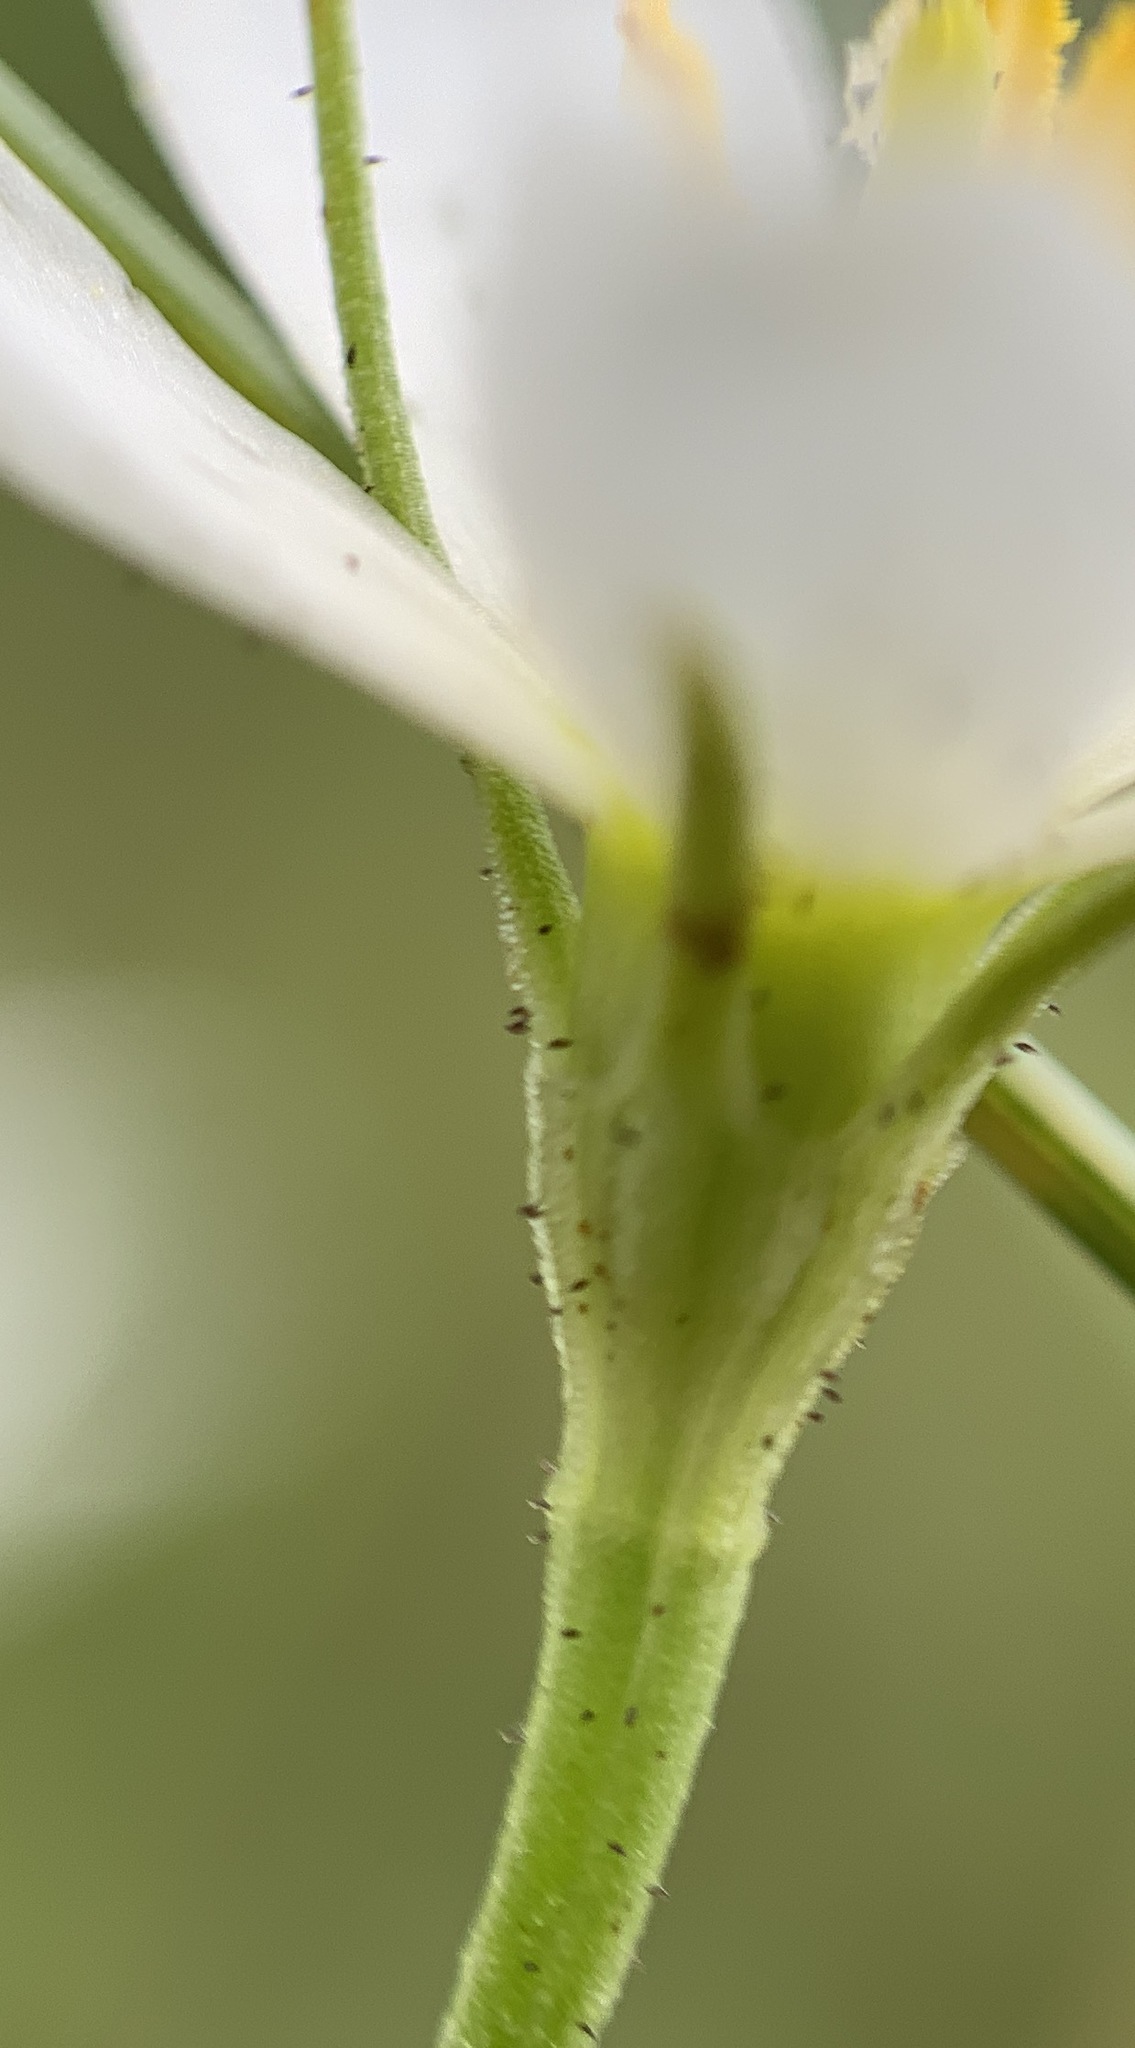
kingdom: Plantae
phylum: Tracheophyta
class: Magnoliopsida
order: Gentianales
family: Gentianaceae
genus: Sabatia
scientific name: Sabatia brevifolia
